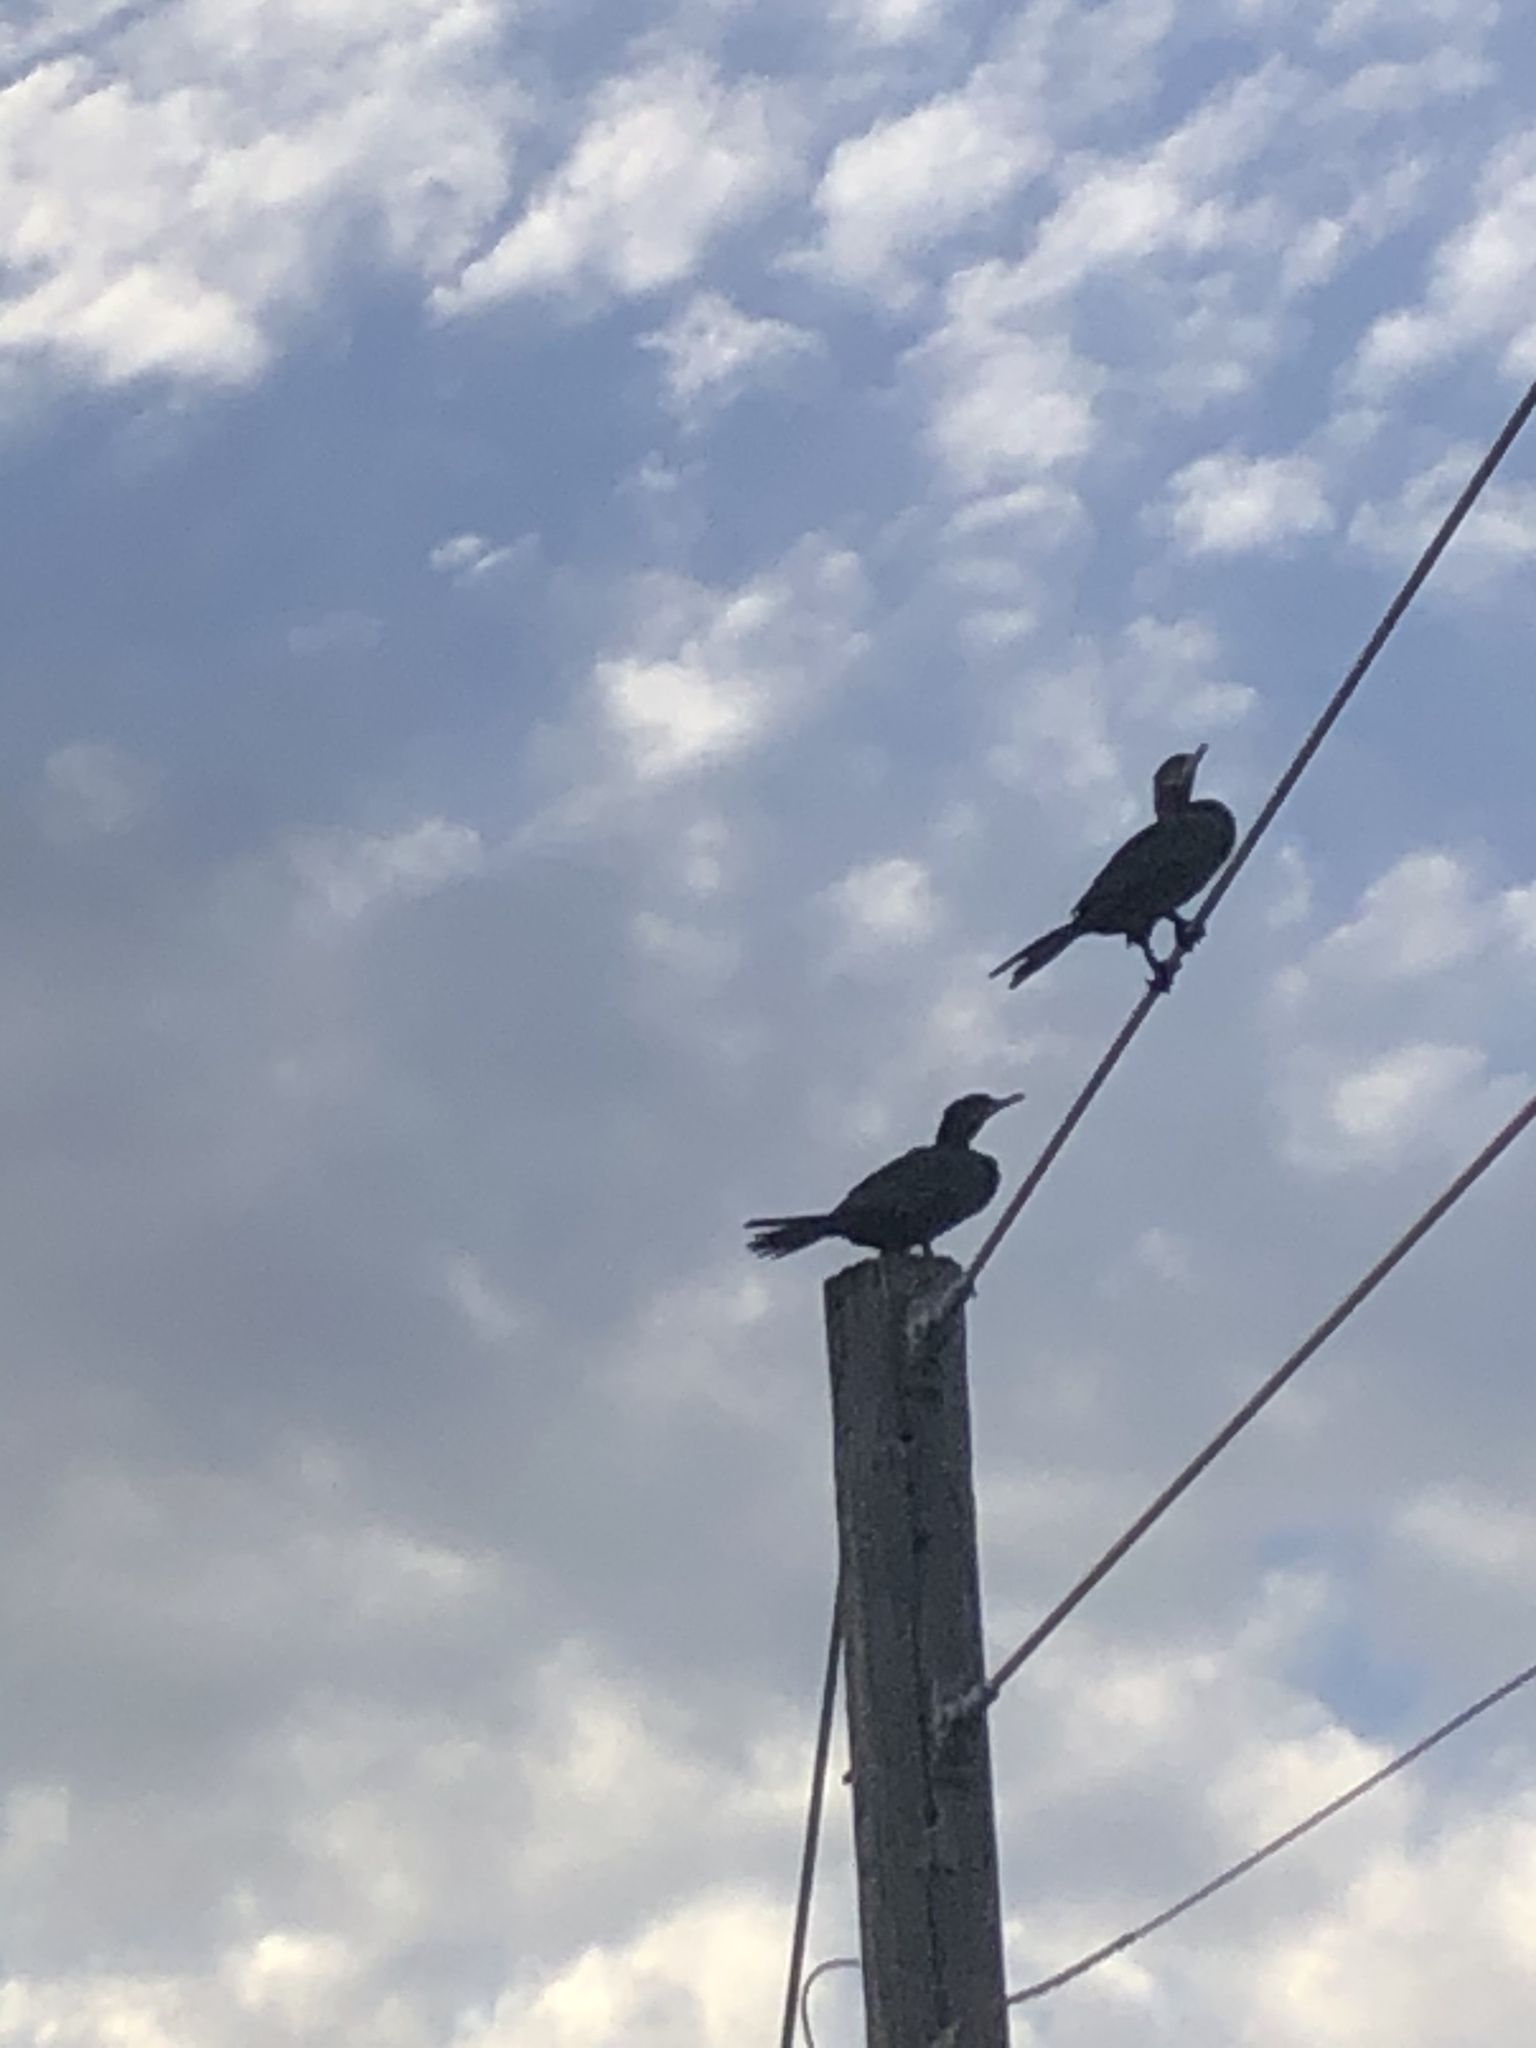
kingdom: Animalia
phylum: Chordata
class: Aves
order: Suliformes
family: Phalacrocoracidae
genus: Phalacrocorax
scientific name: Phalacrocorax brasilianus
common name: Neotropic cormorant
